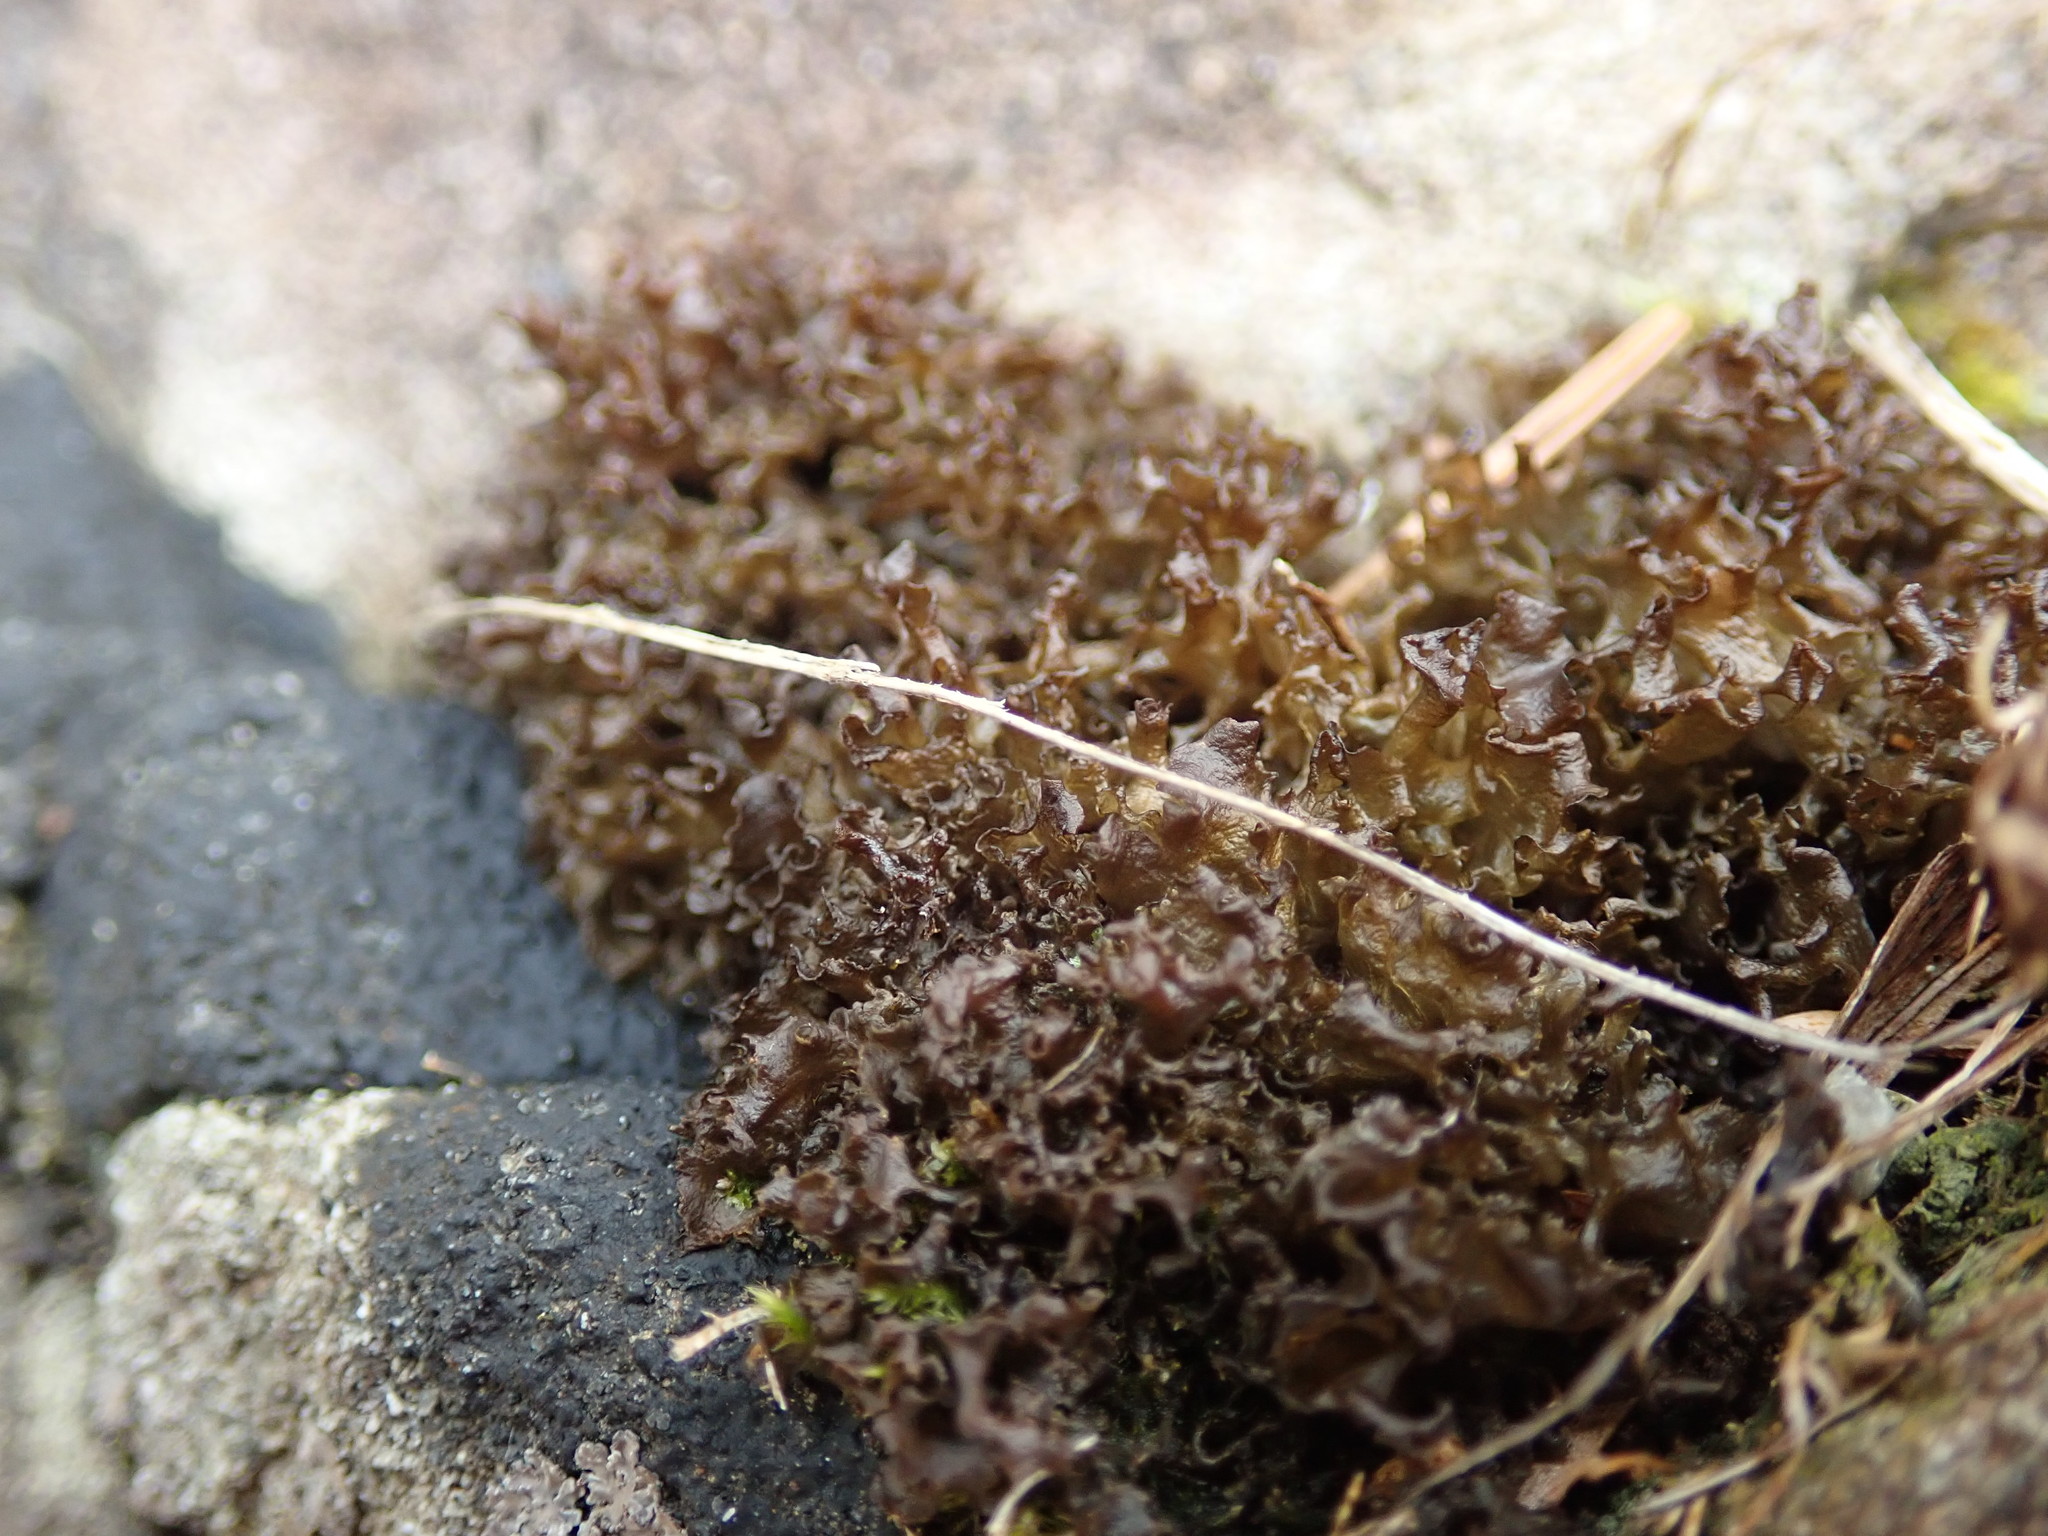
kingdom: Fungi
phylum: Ascomycota
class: Lecanoromycetes
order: Peltigerales
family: Collemataceae
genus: Scytinium
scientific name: Scytinium palmatum
